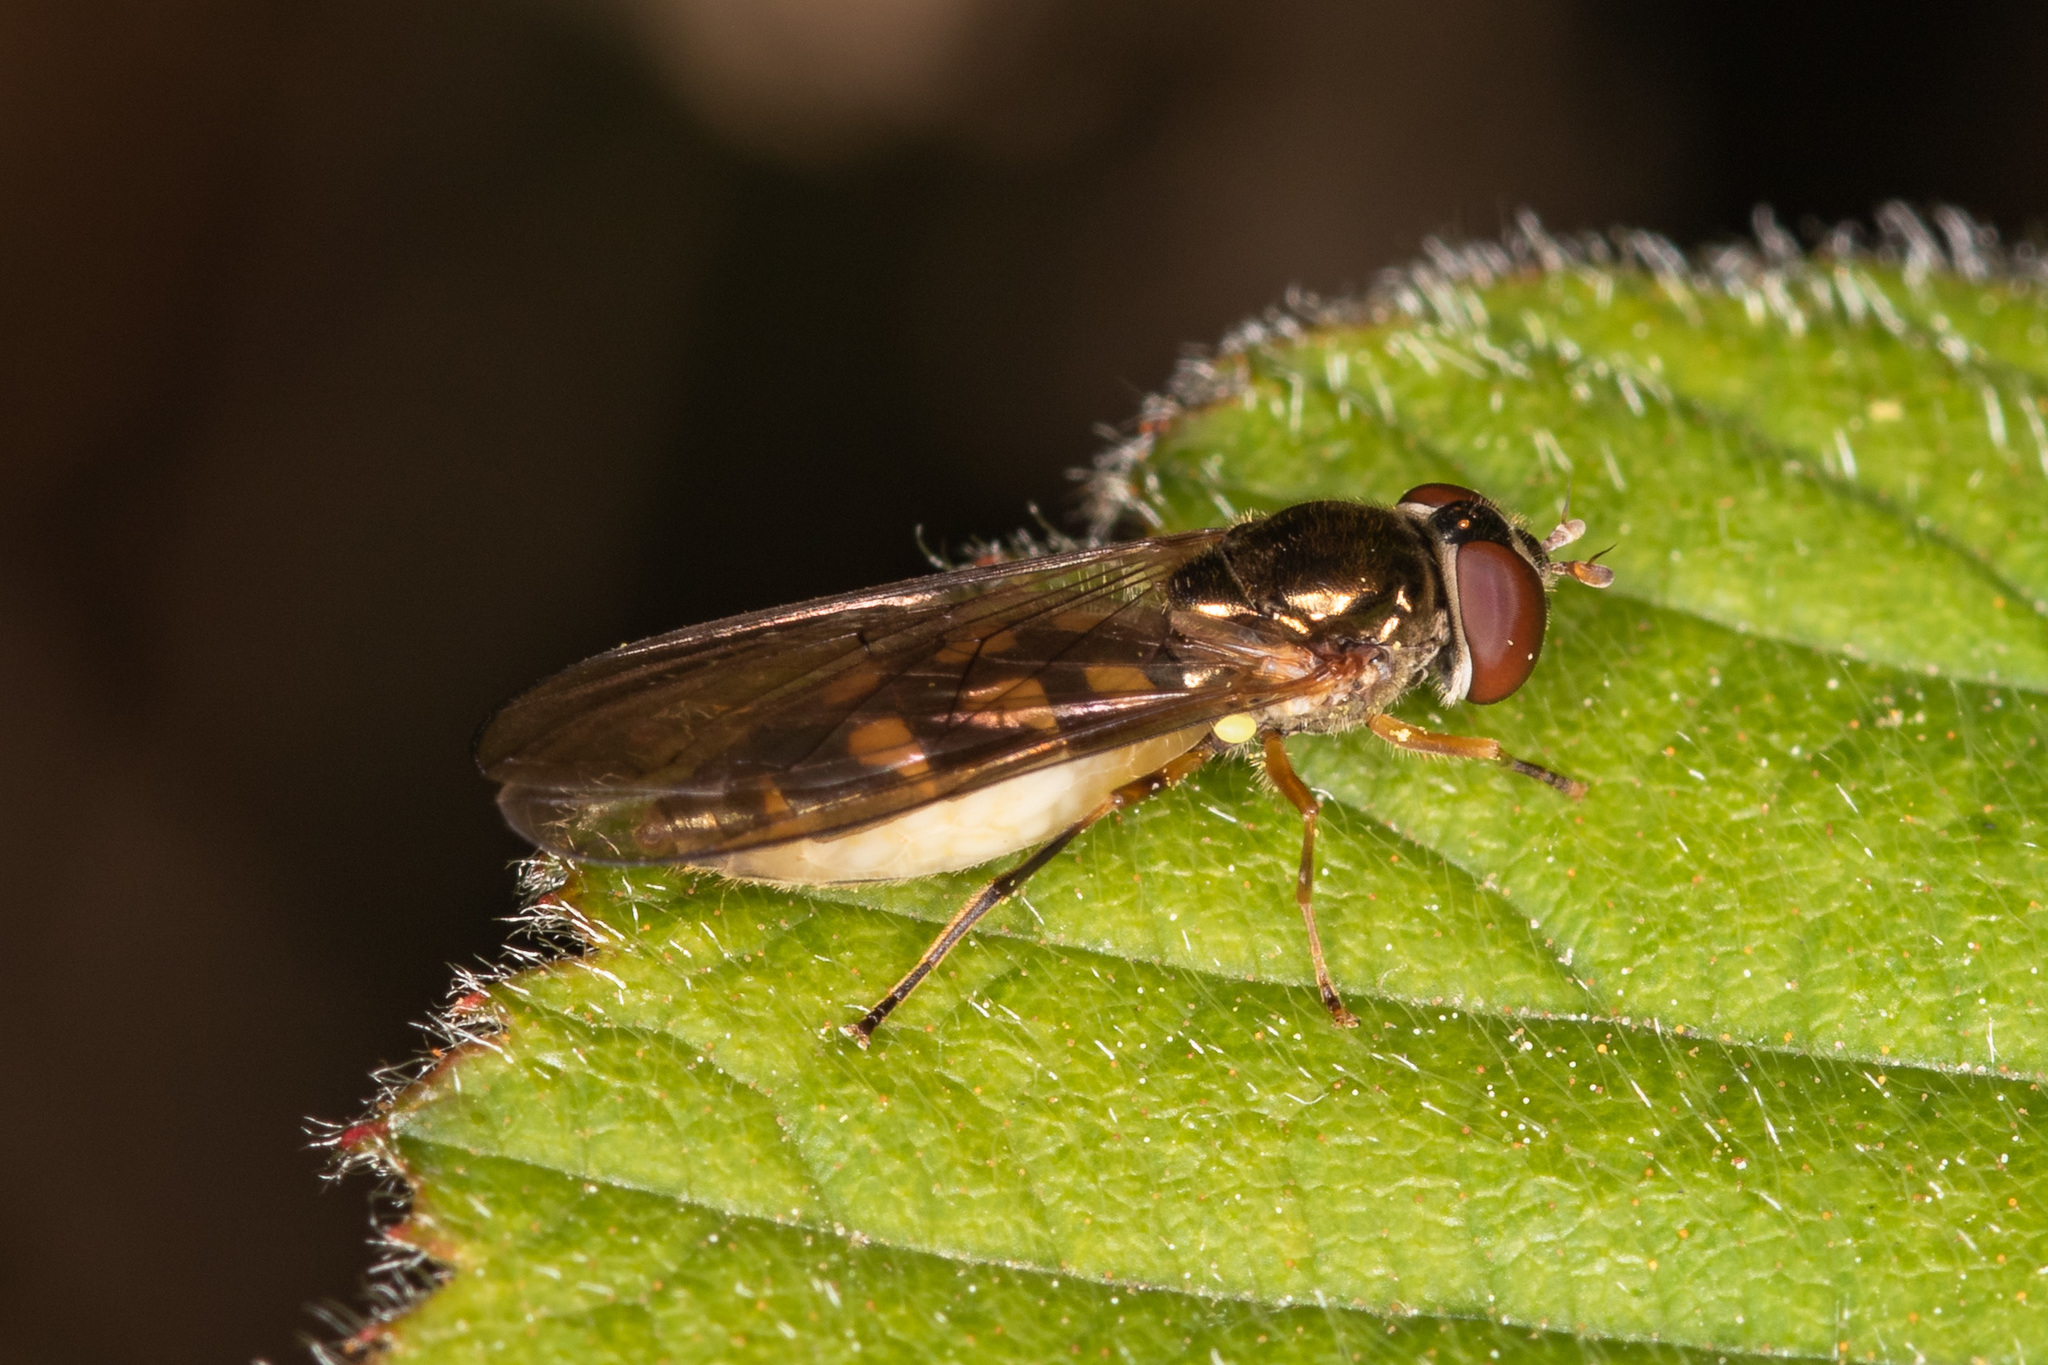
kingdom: Animalia
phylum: Arthropoda
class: Insecta
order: Diptera
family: Syrphidae
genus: Melanostoma
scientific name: Melanostoma scalare
